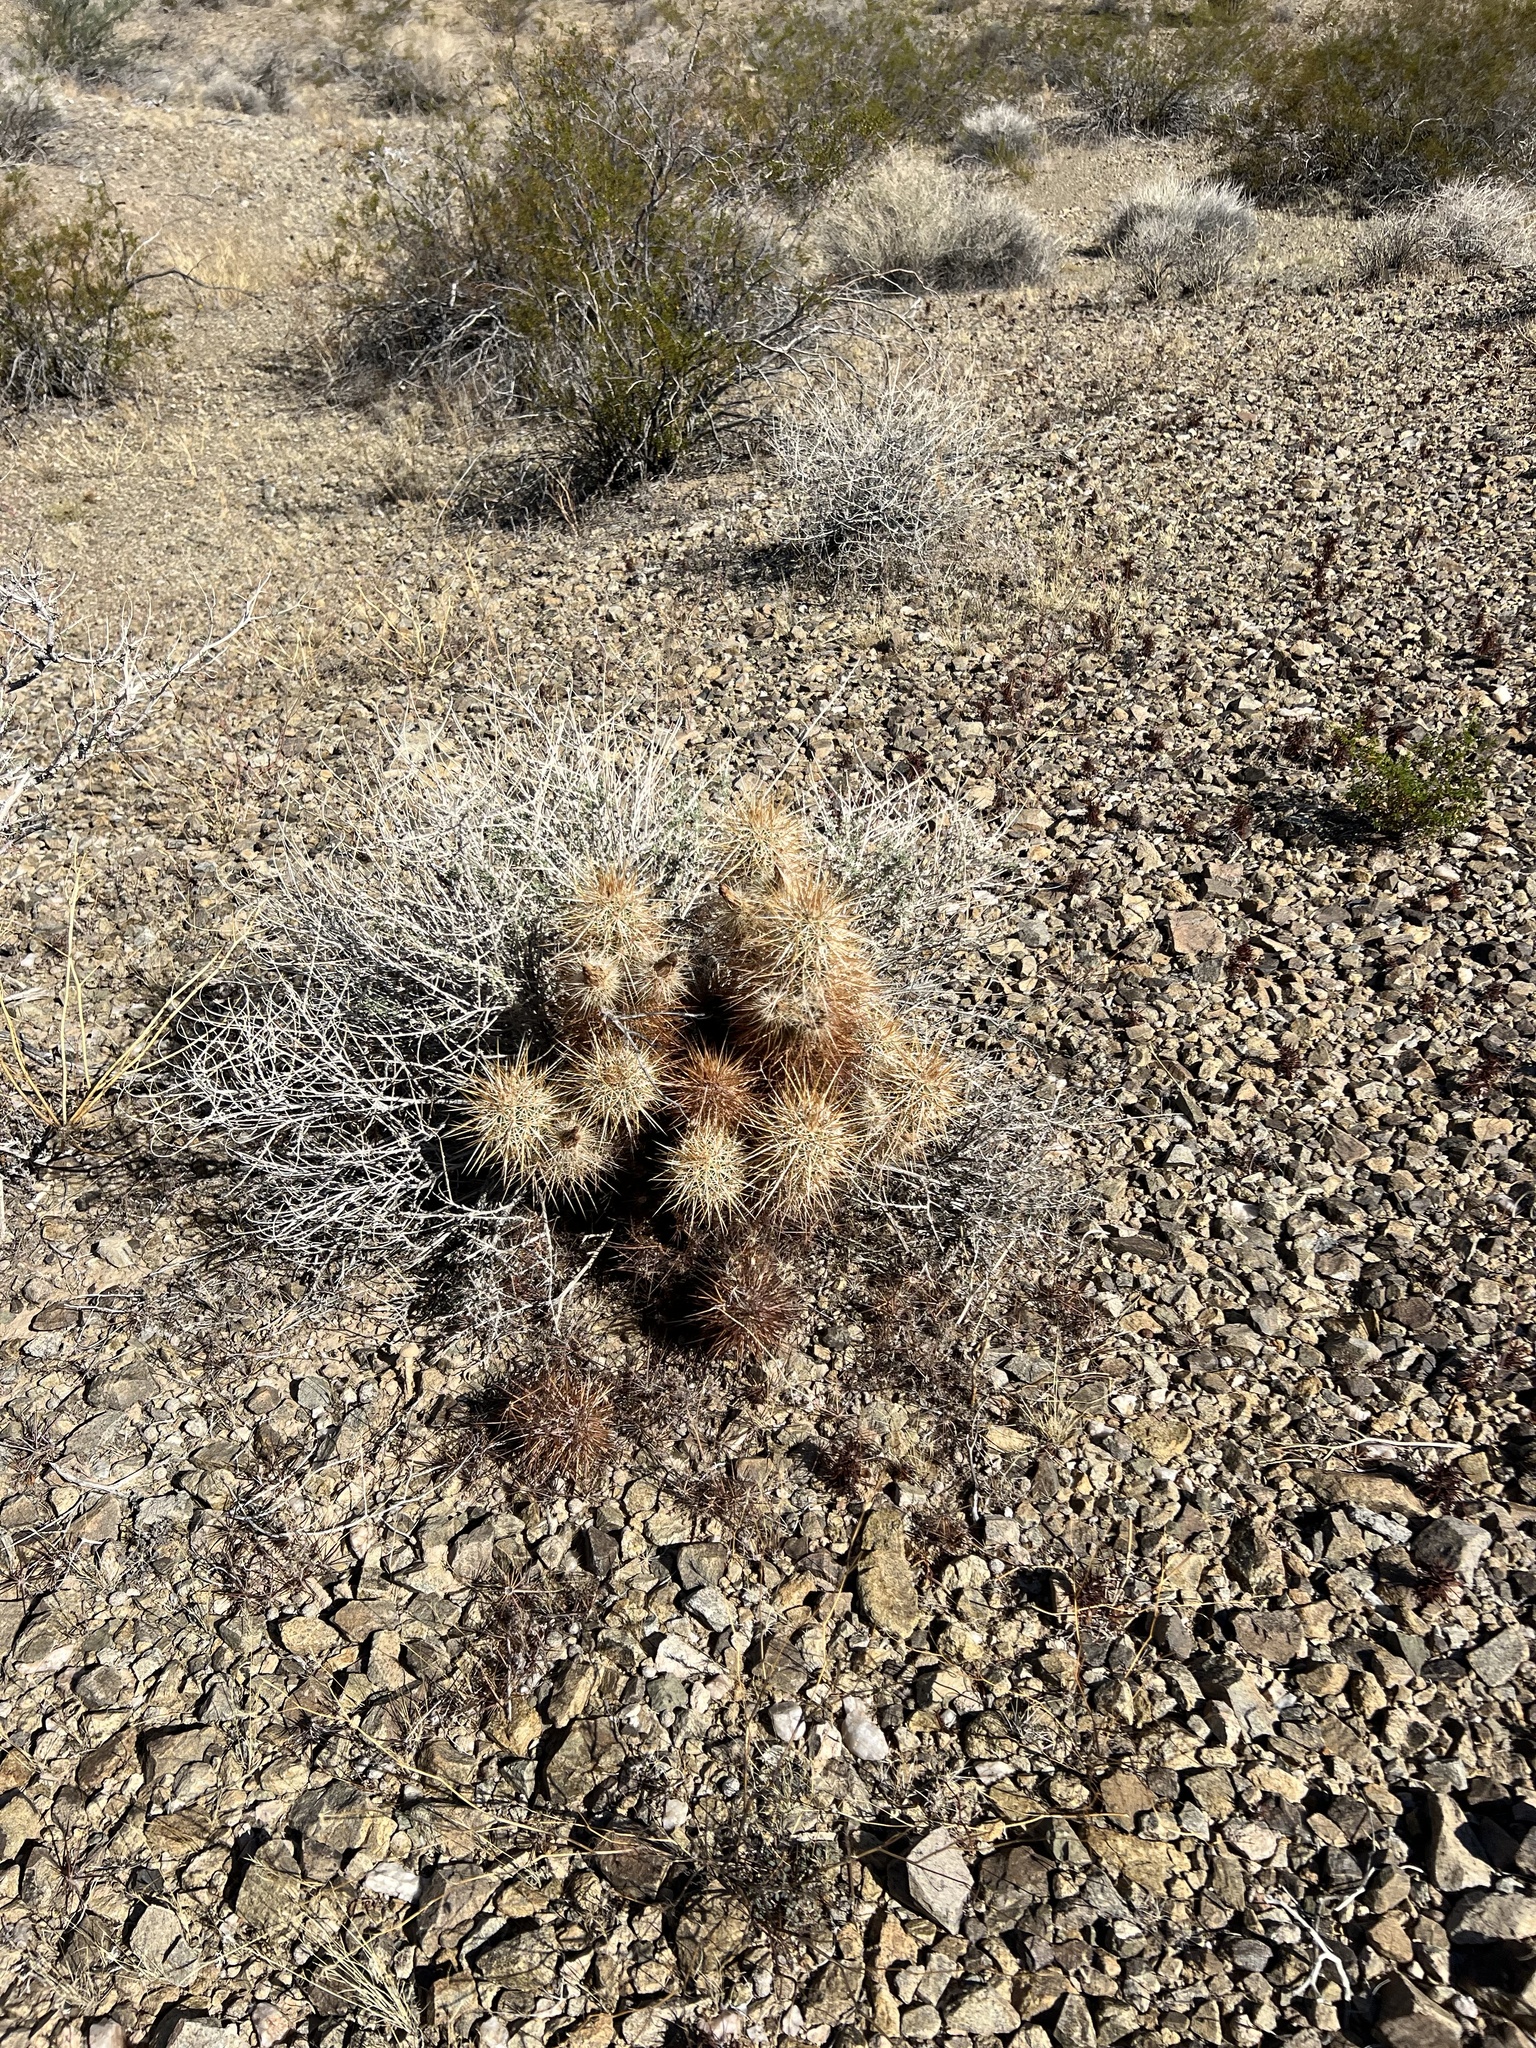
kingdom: Plantae
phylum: Tracheophyta
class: Magnoliopsida
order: Caryophyllales
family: Cactaceae
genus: Echinocereus
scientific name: Echinocereus engelmannii
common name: Engelmann's hedgehog cactus
